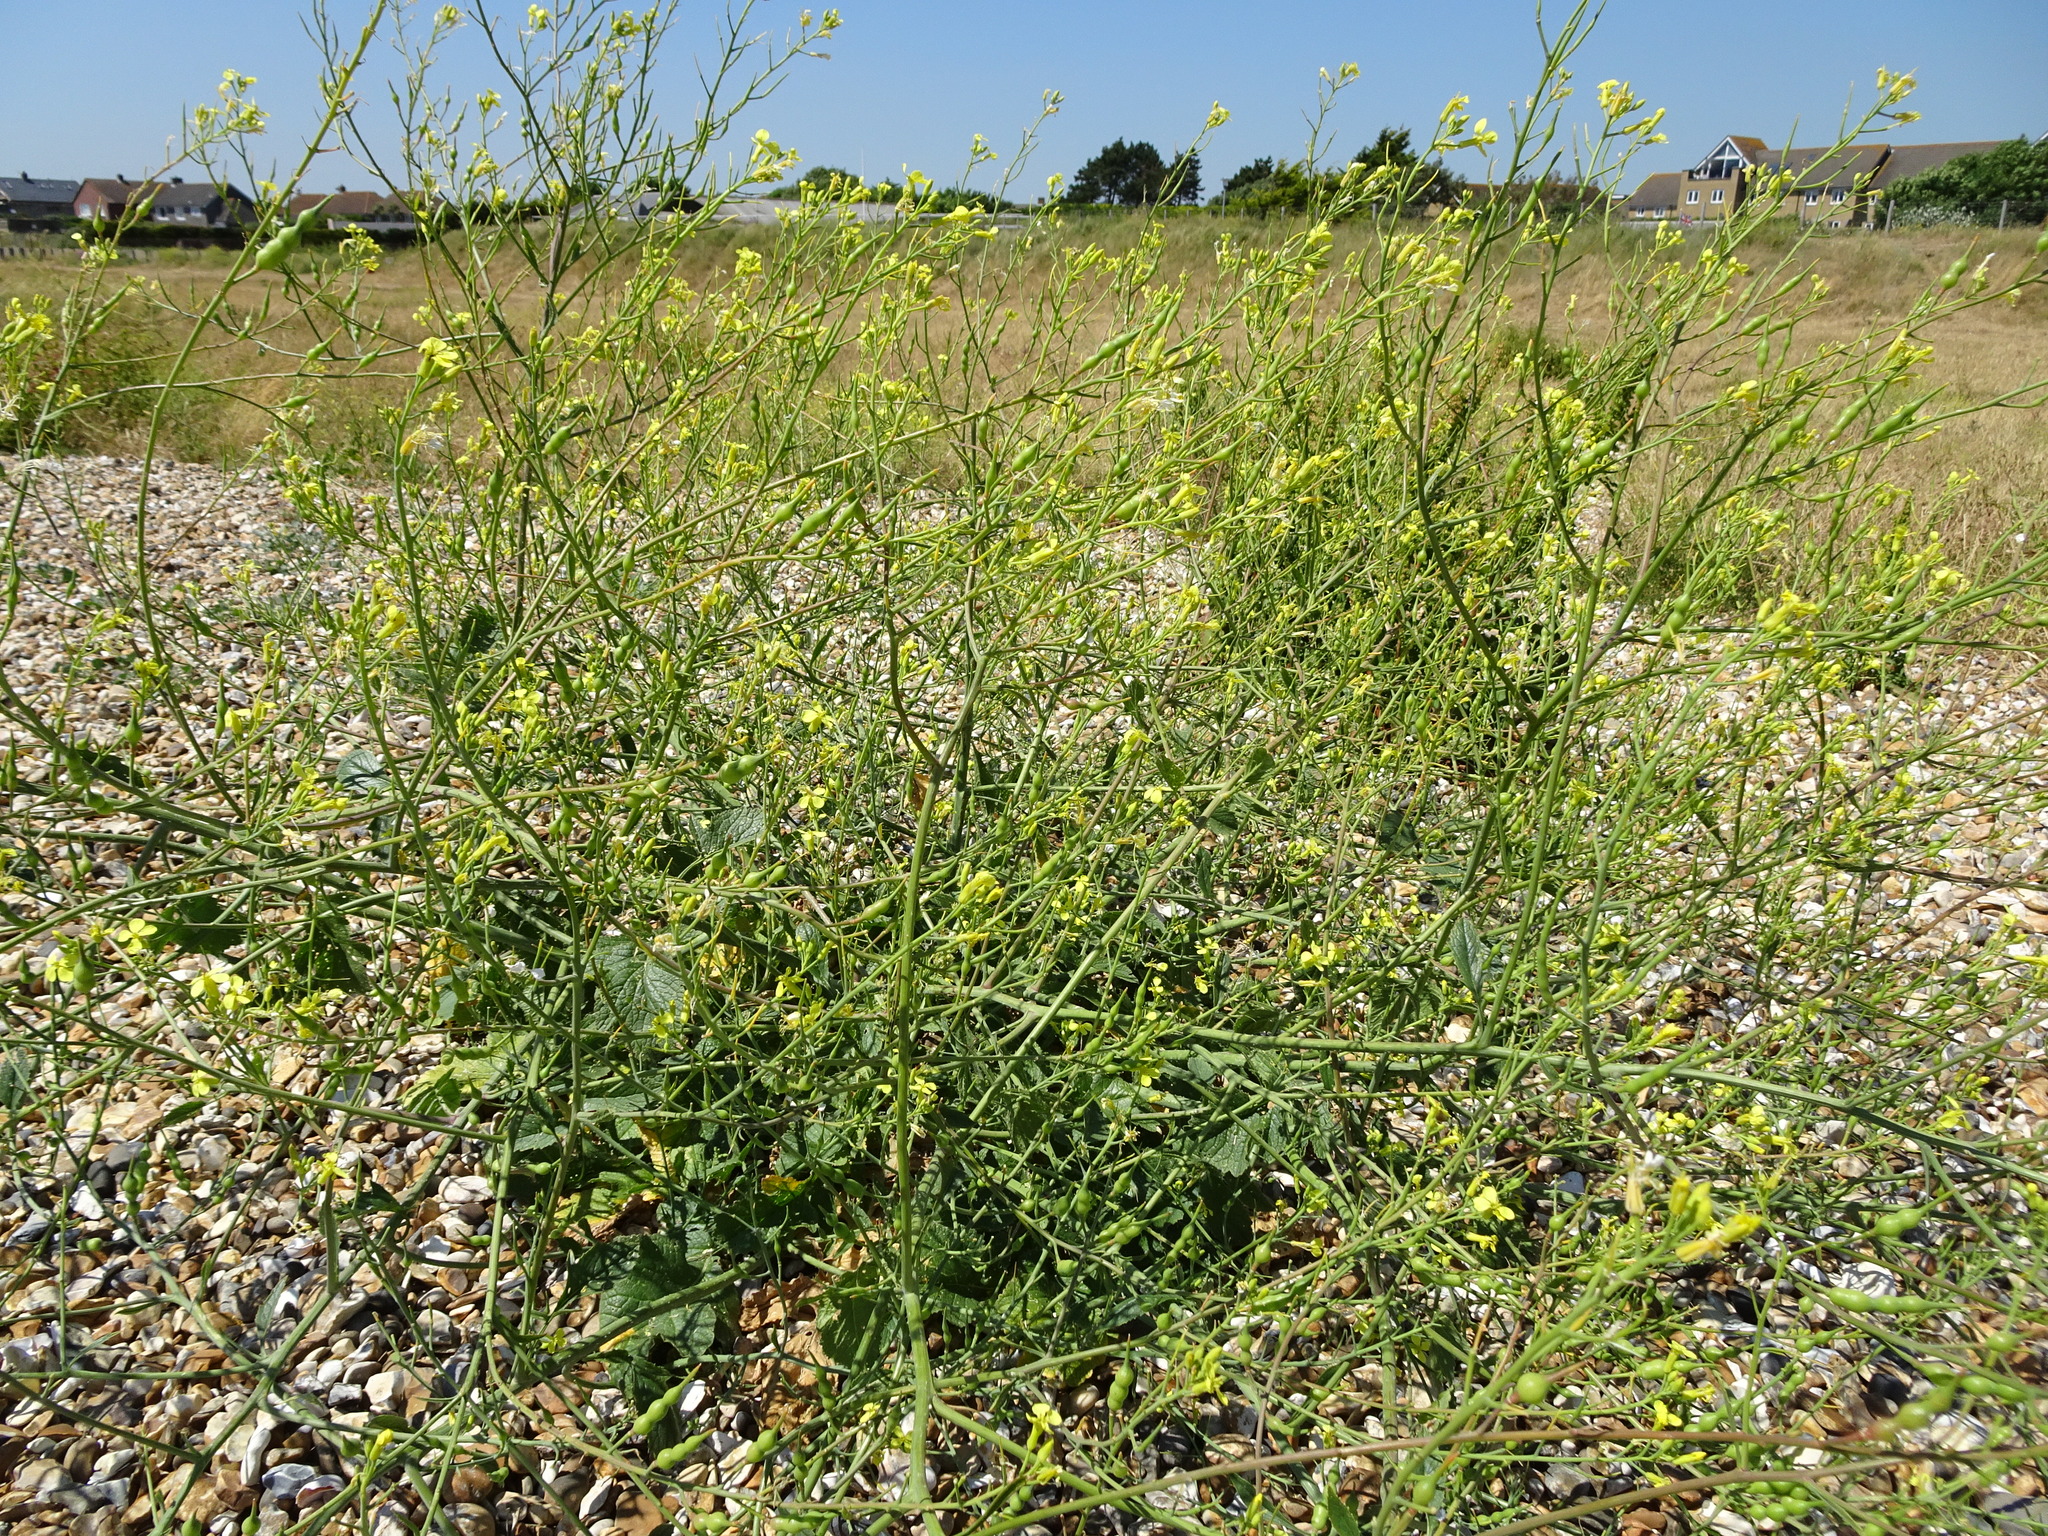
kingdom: Plantae
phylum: Tracheophyta
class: Magnoliopsida
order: Brassicales
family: Brassicaceae
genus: Raphanus
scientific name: Raphanus raphanistrum
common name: Wild radish
